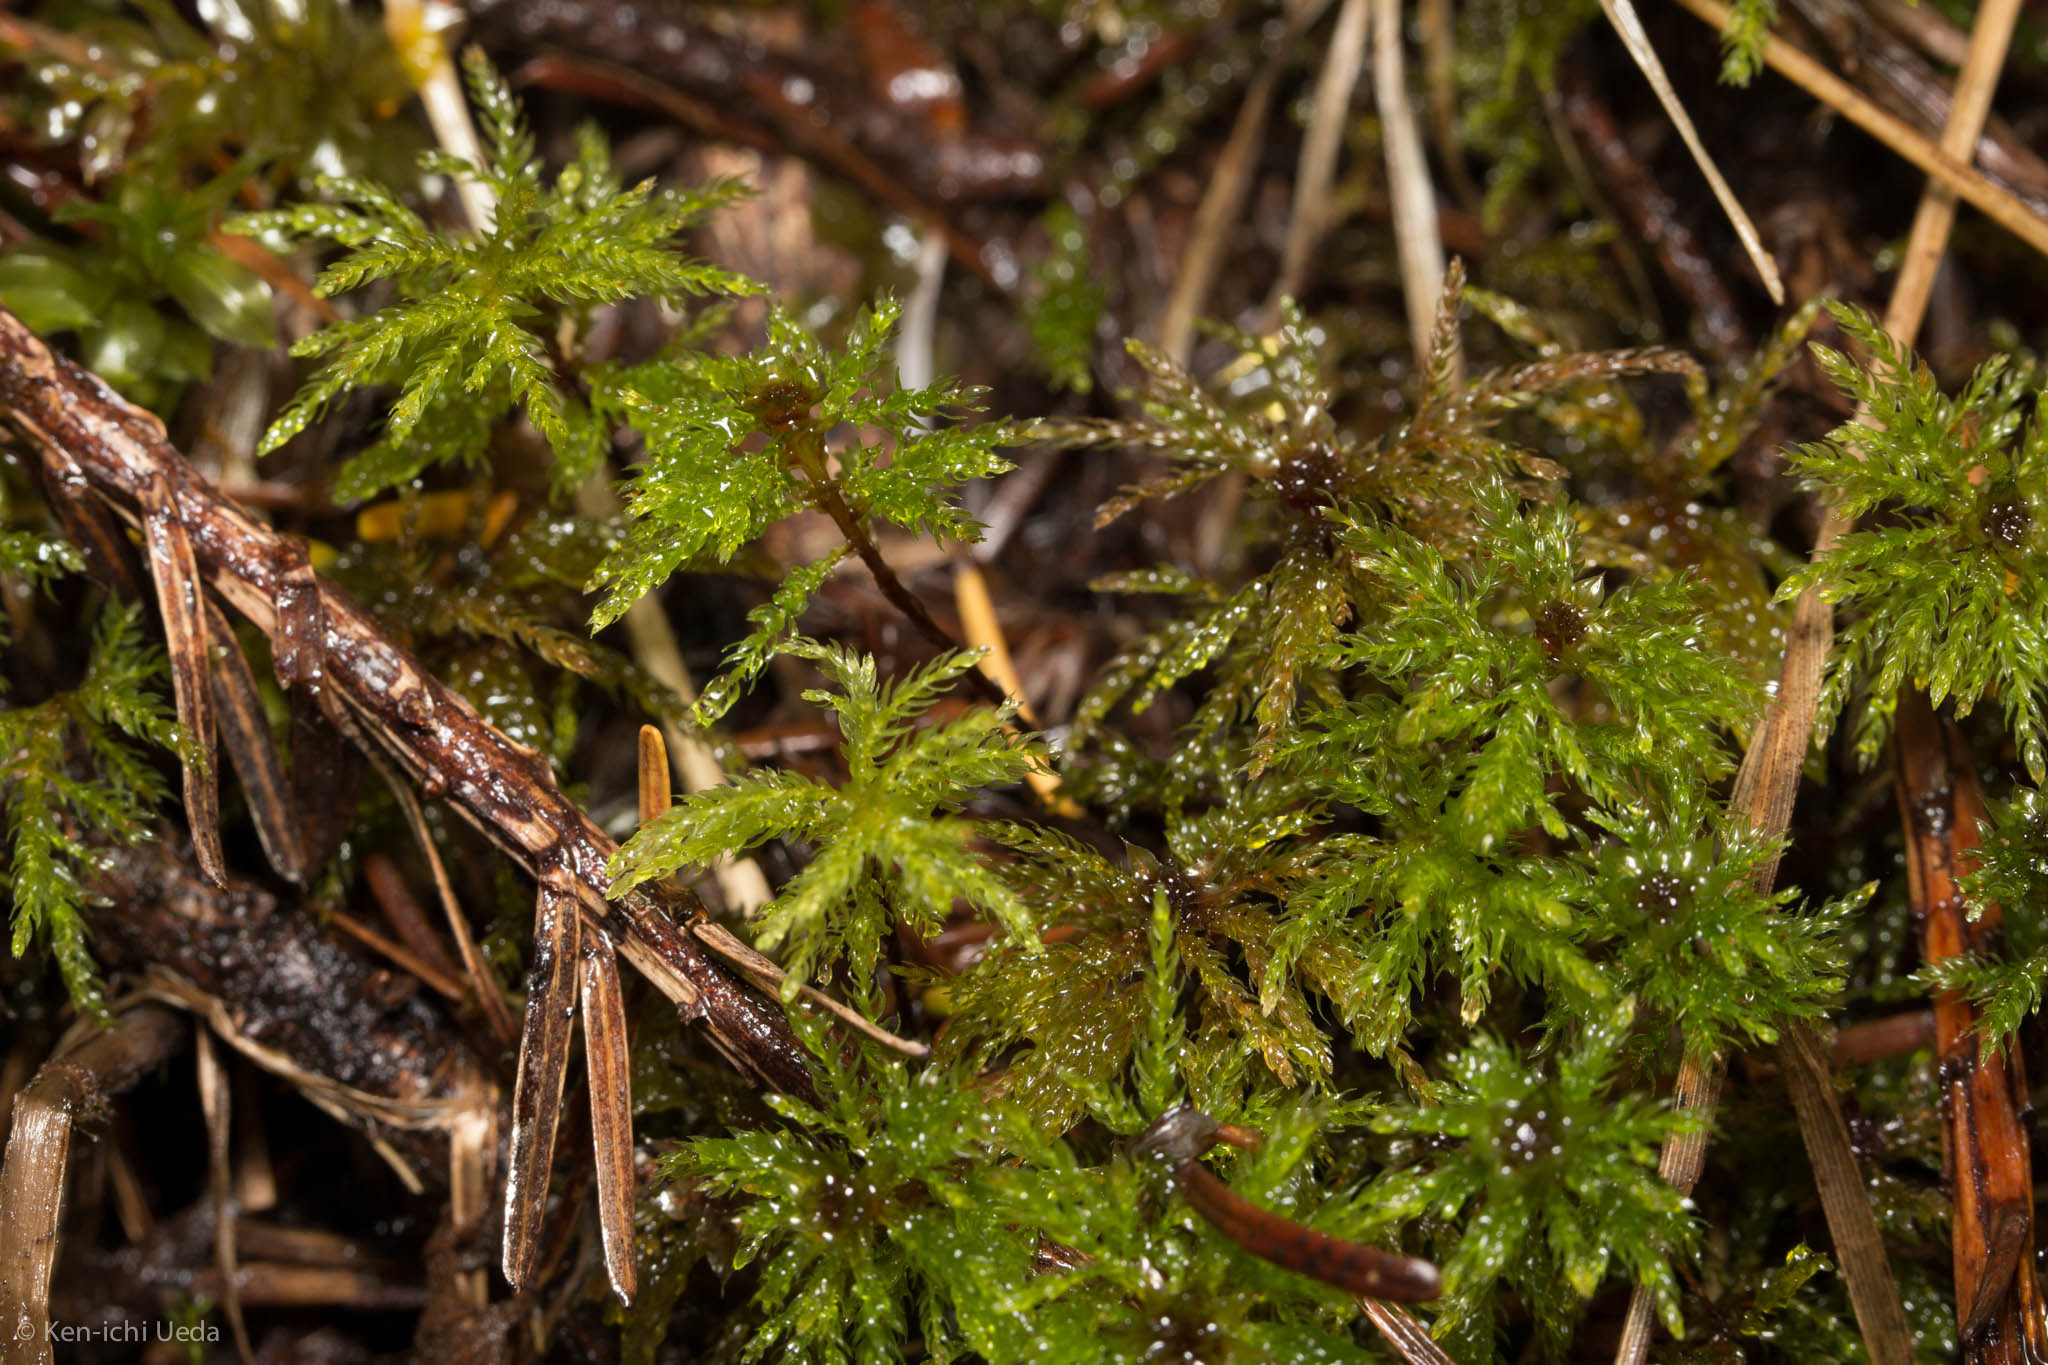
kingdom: Plantae
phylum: Bryophyta
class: Bryopsida
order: Bryales
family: Mniaceae
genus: Leucolepis
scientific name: Leucolepis acanthoneura
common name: Leucolepis umbrella moss
